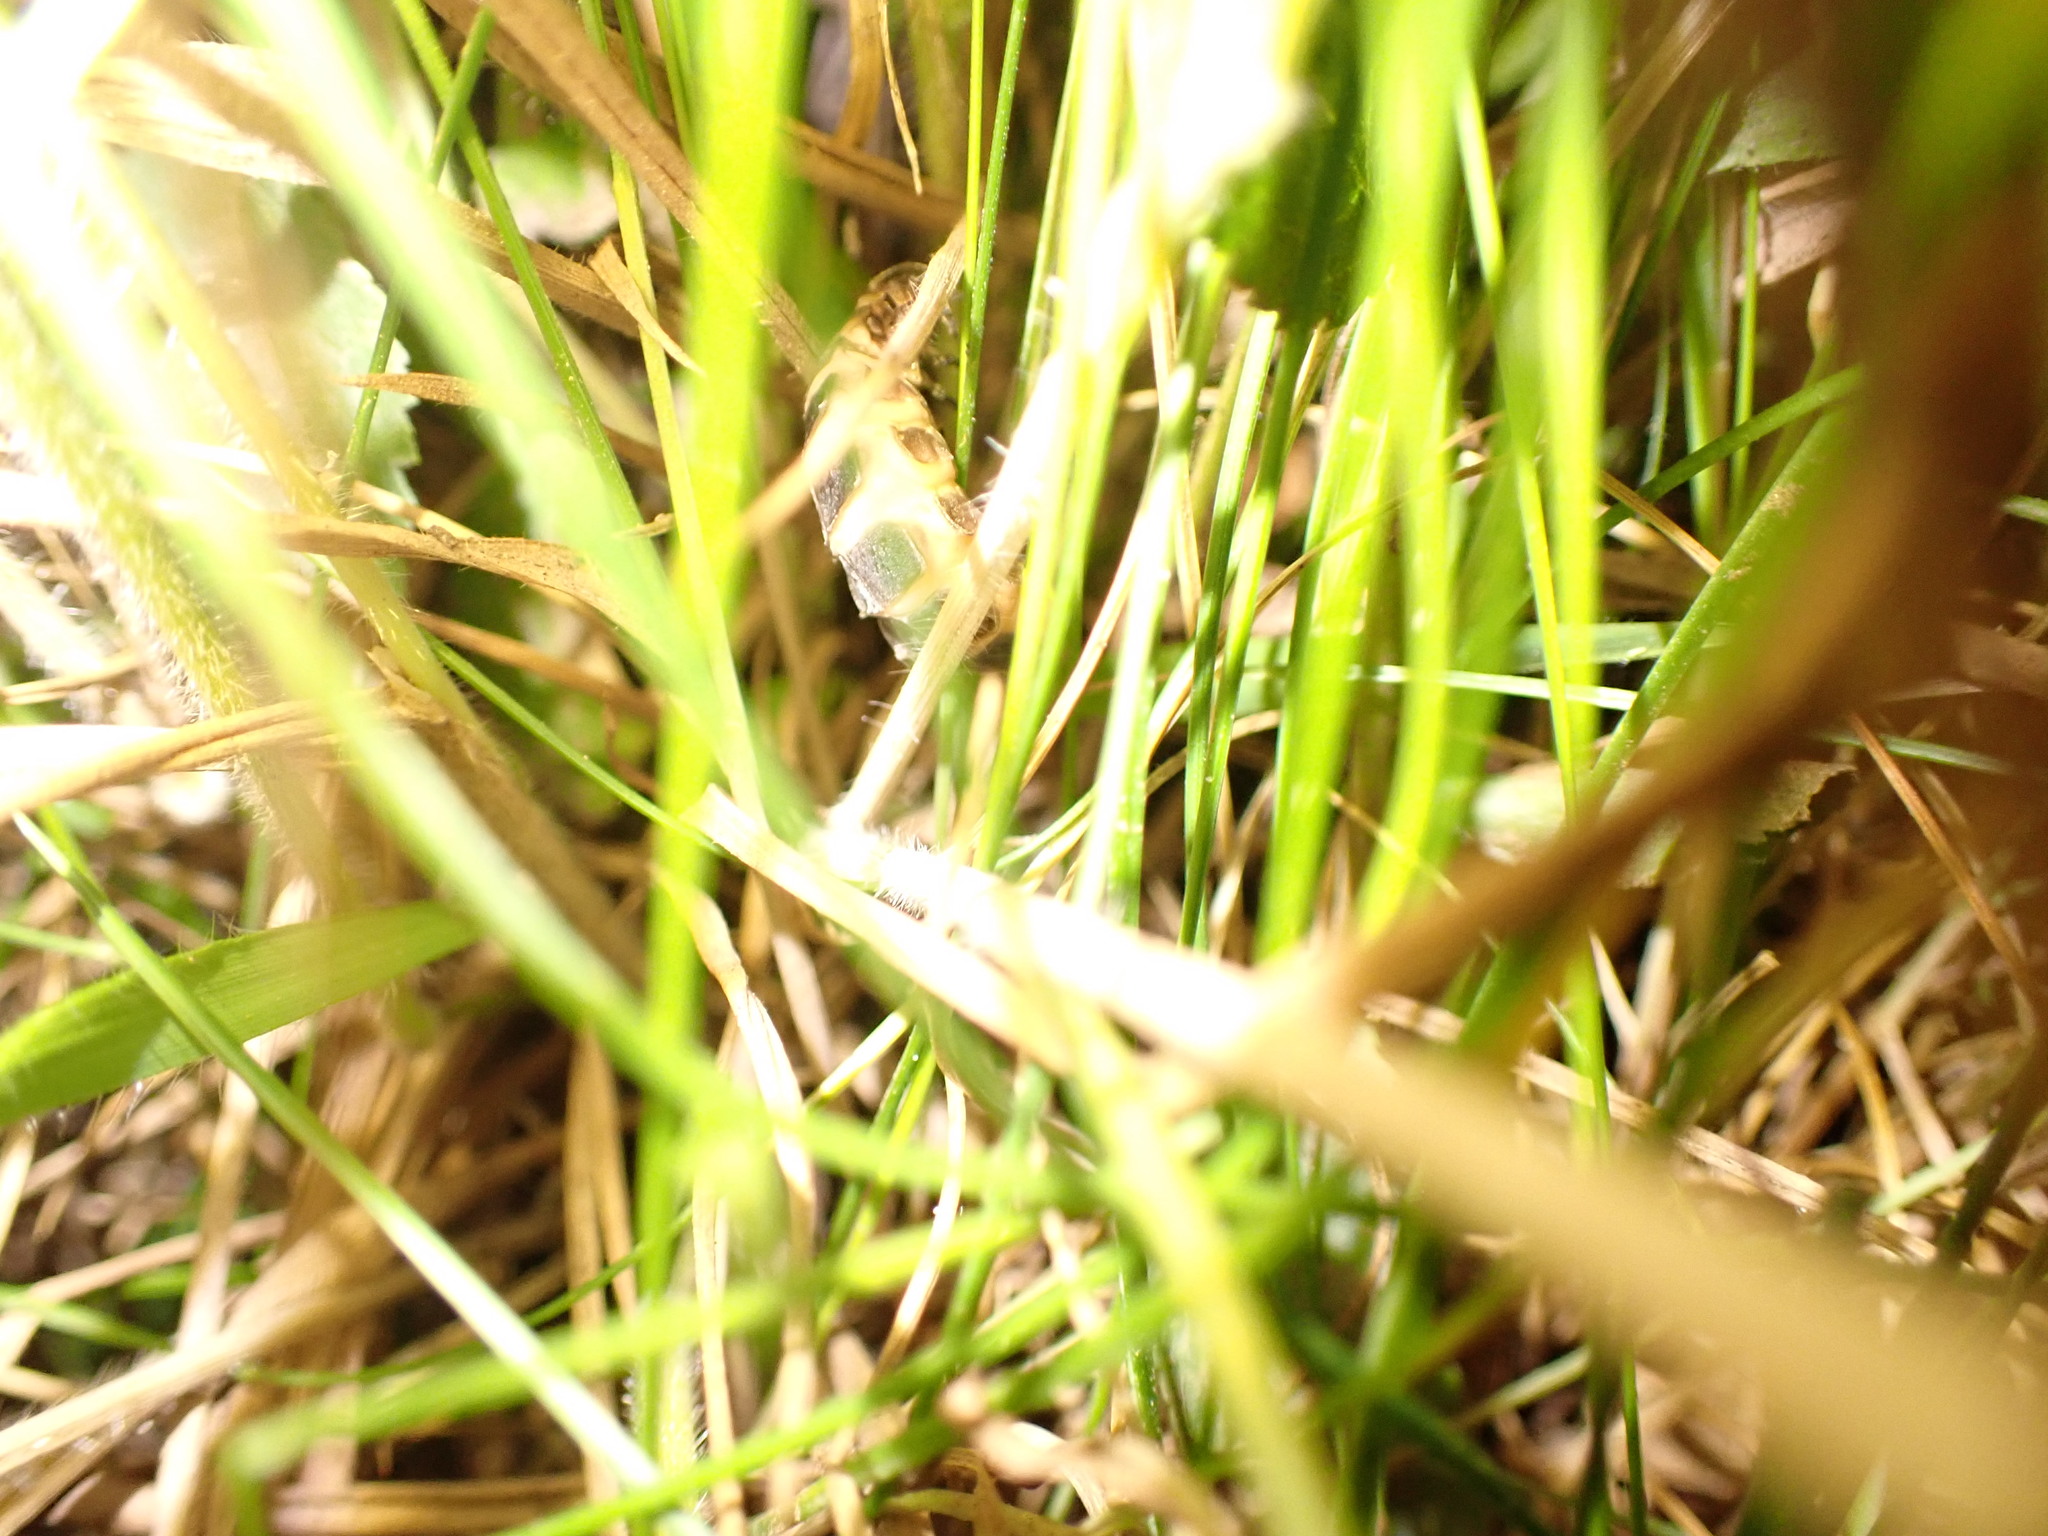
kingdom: Animalia
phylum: Arthropoda
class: Insecta
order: Coleoptera
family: Lampyridae
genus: Lampyris
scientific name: Lampyris noctiluca
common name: Glow-worm
